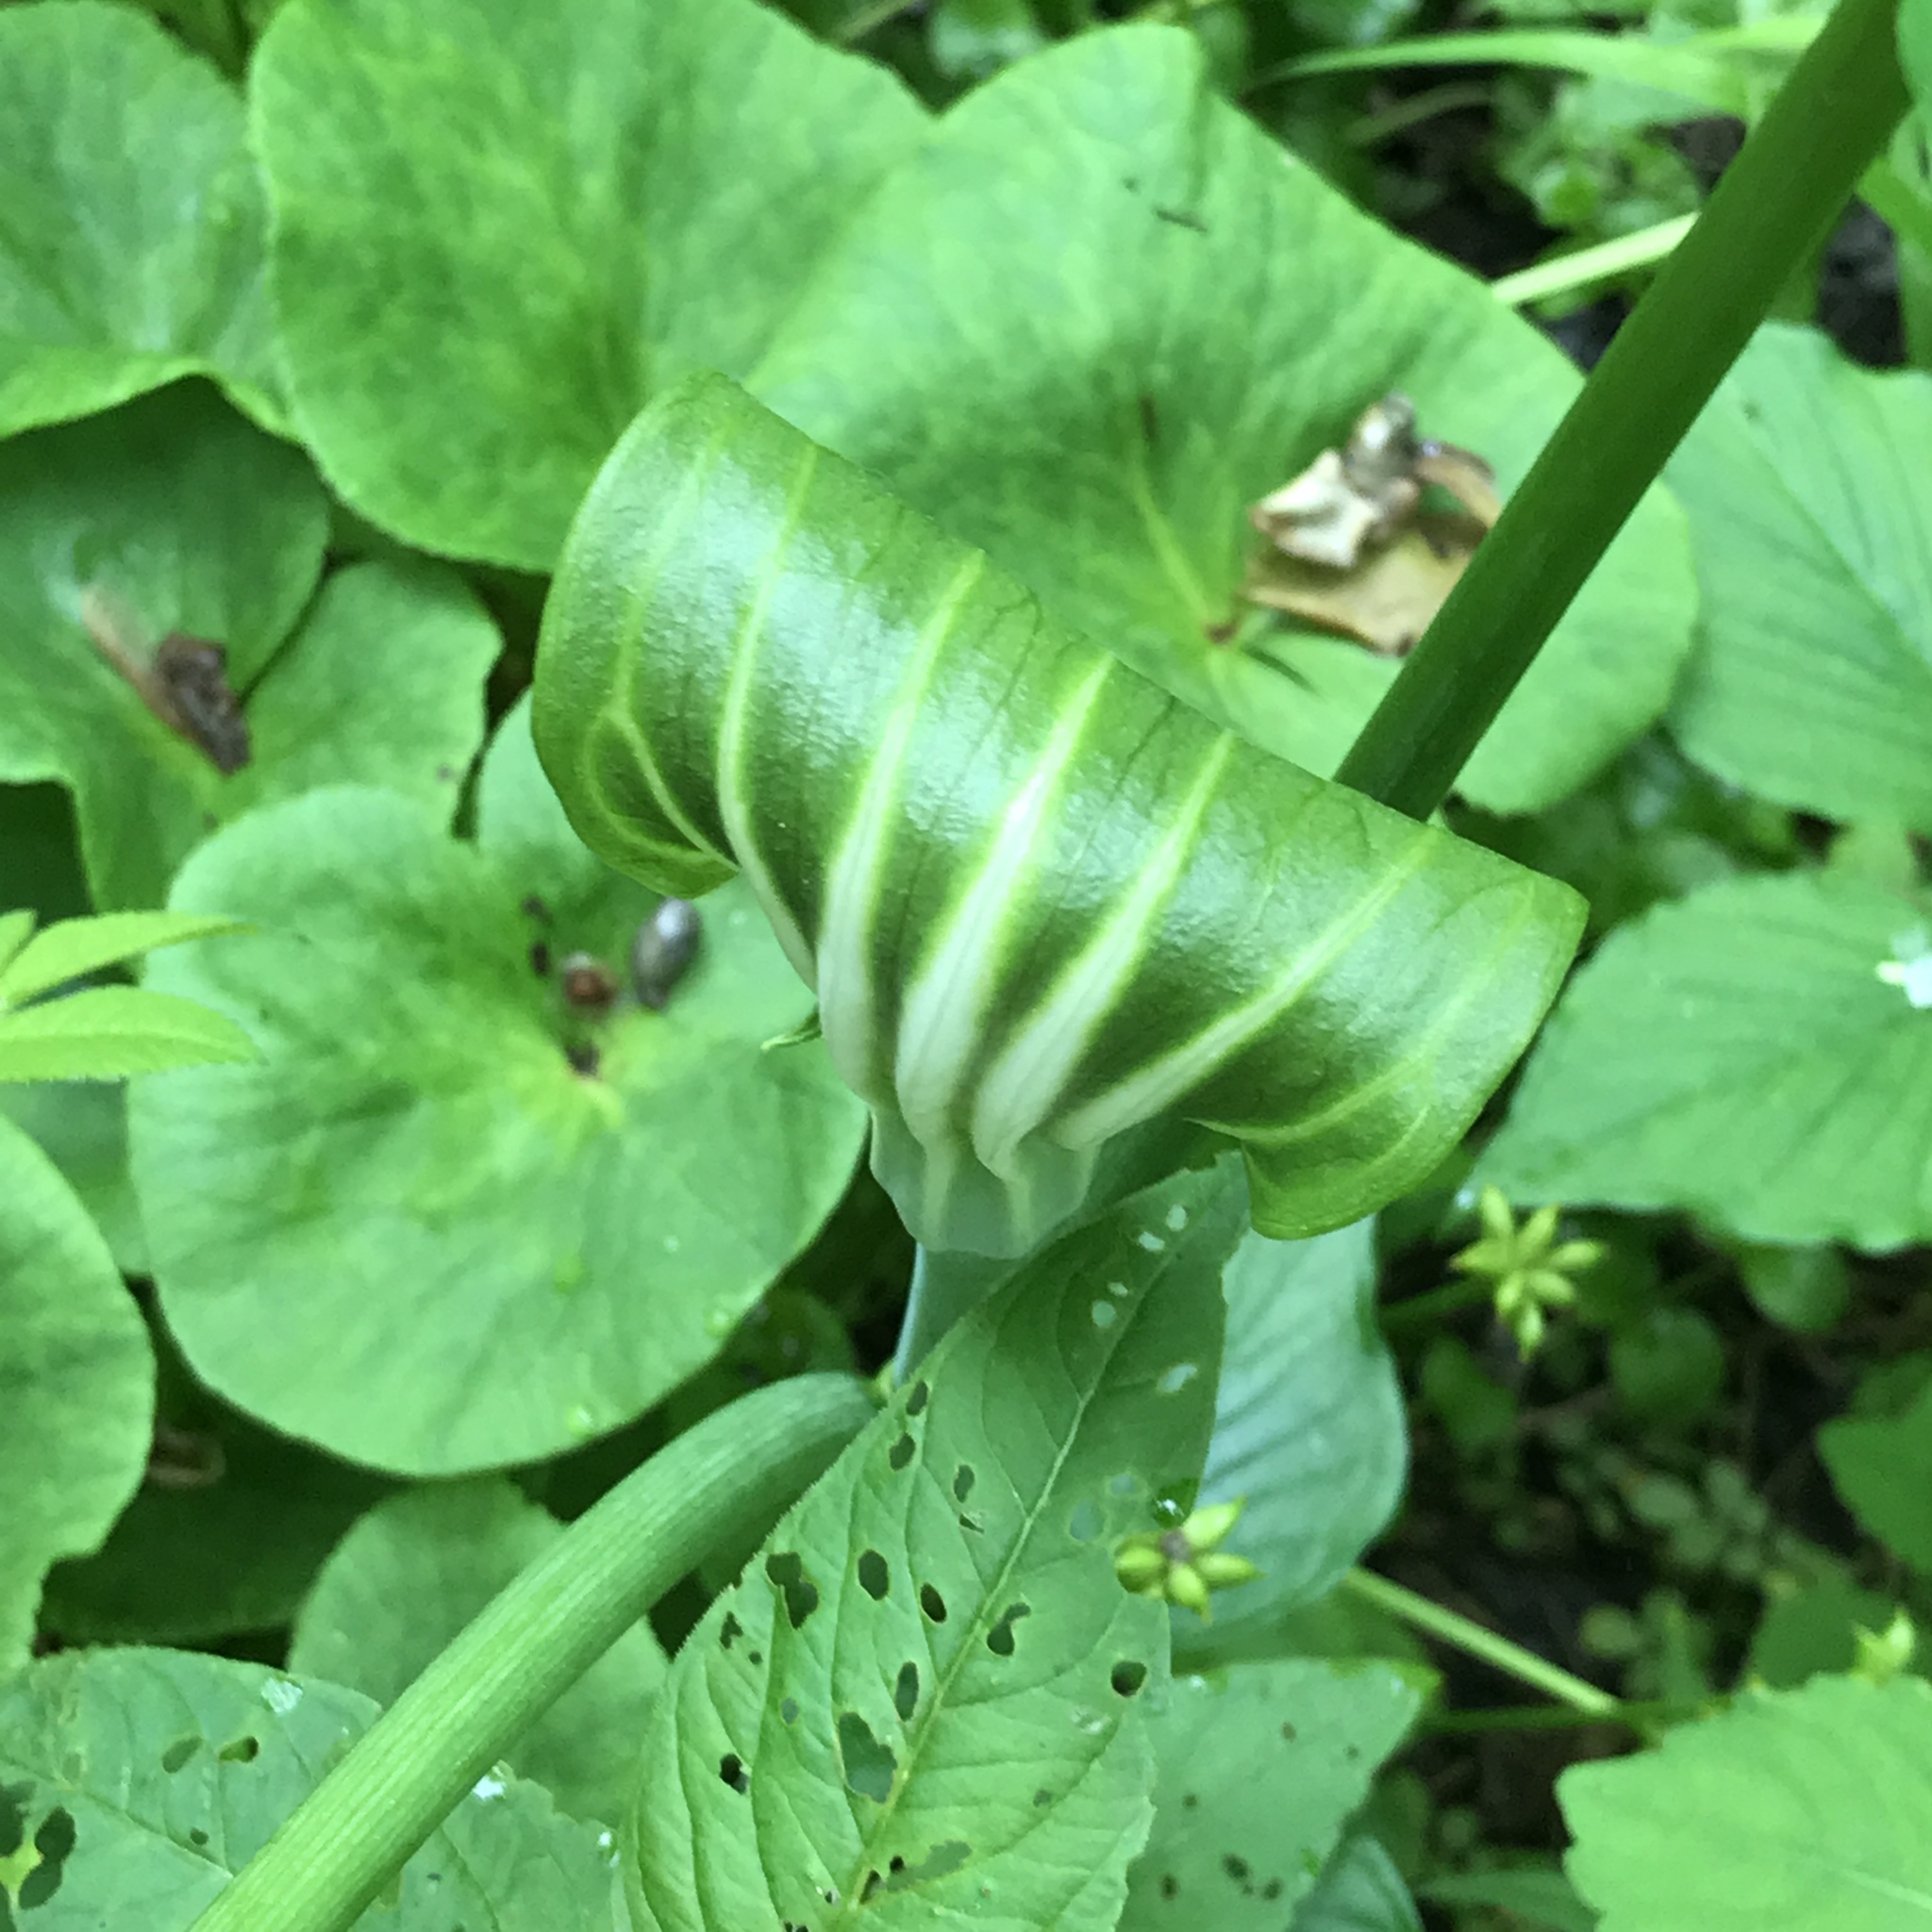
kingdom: Plantae
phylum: Tracheophyta
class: Liliopsida
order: Alismatales
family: Araceae
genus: Arisaema
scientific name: Arisaema stewardsonii
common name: Swamp jack-in-the-pulpit
